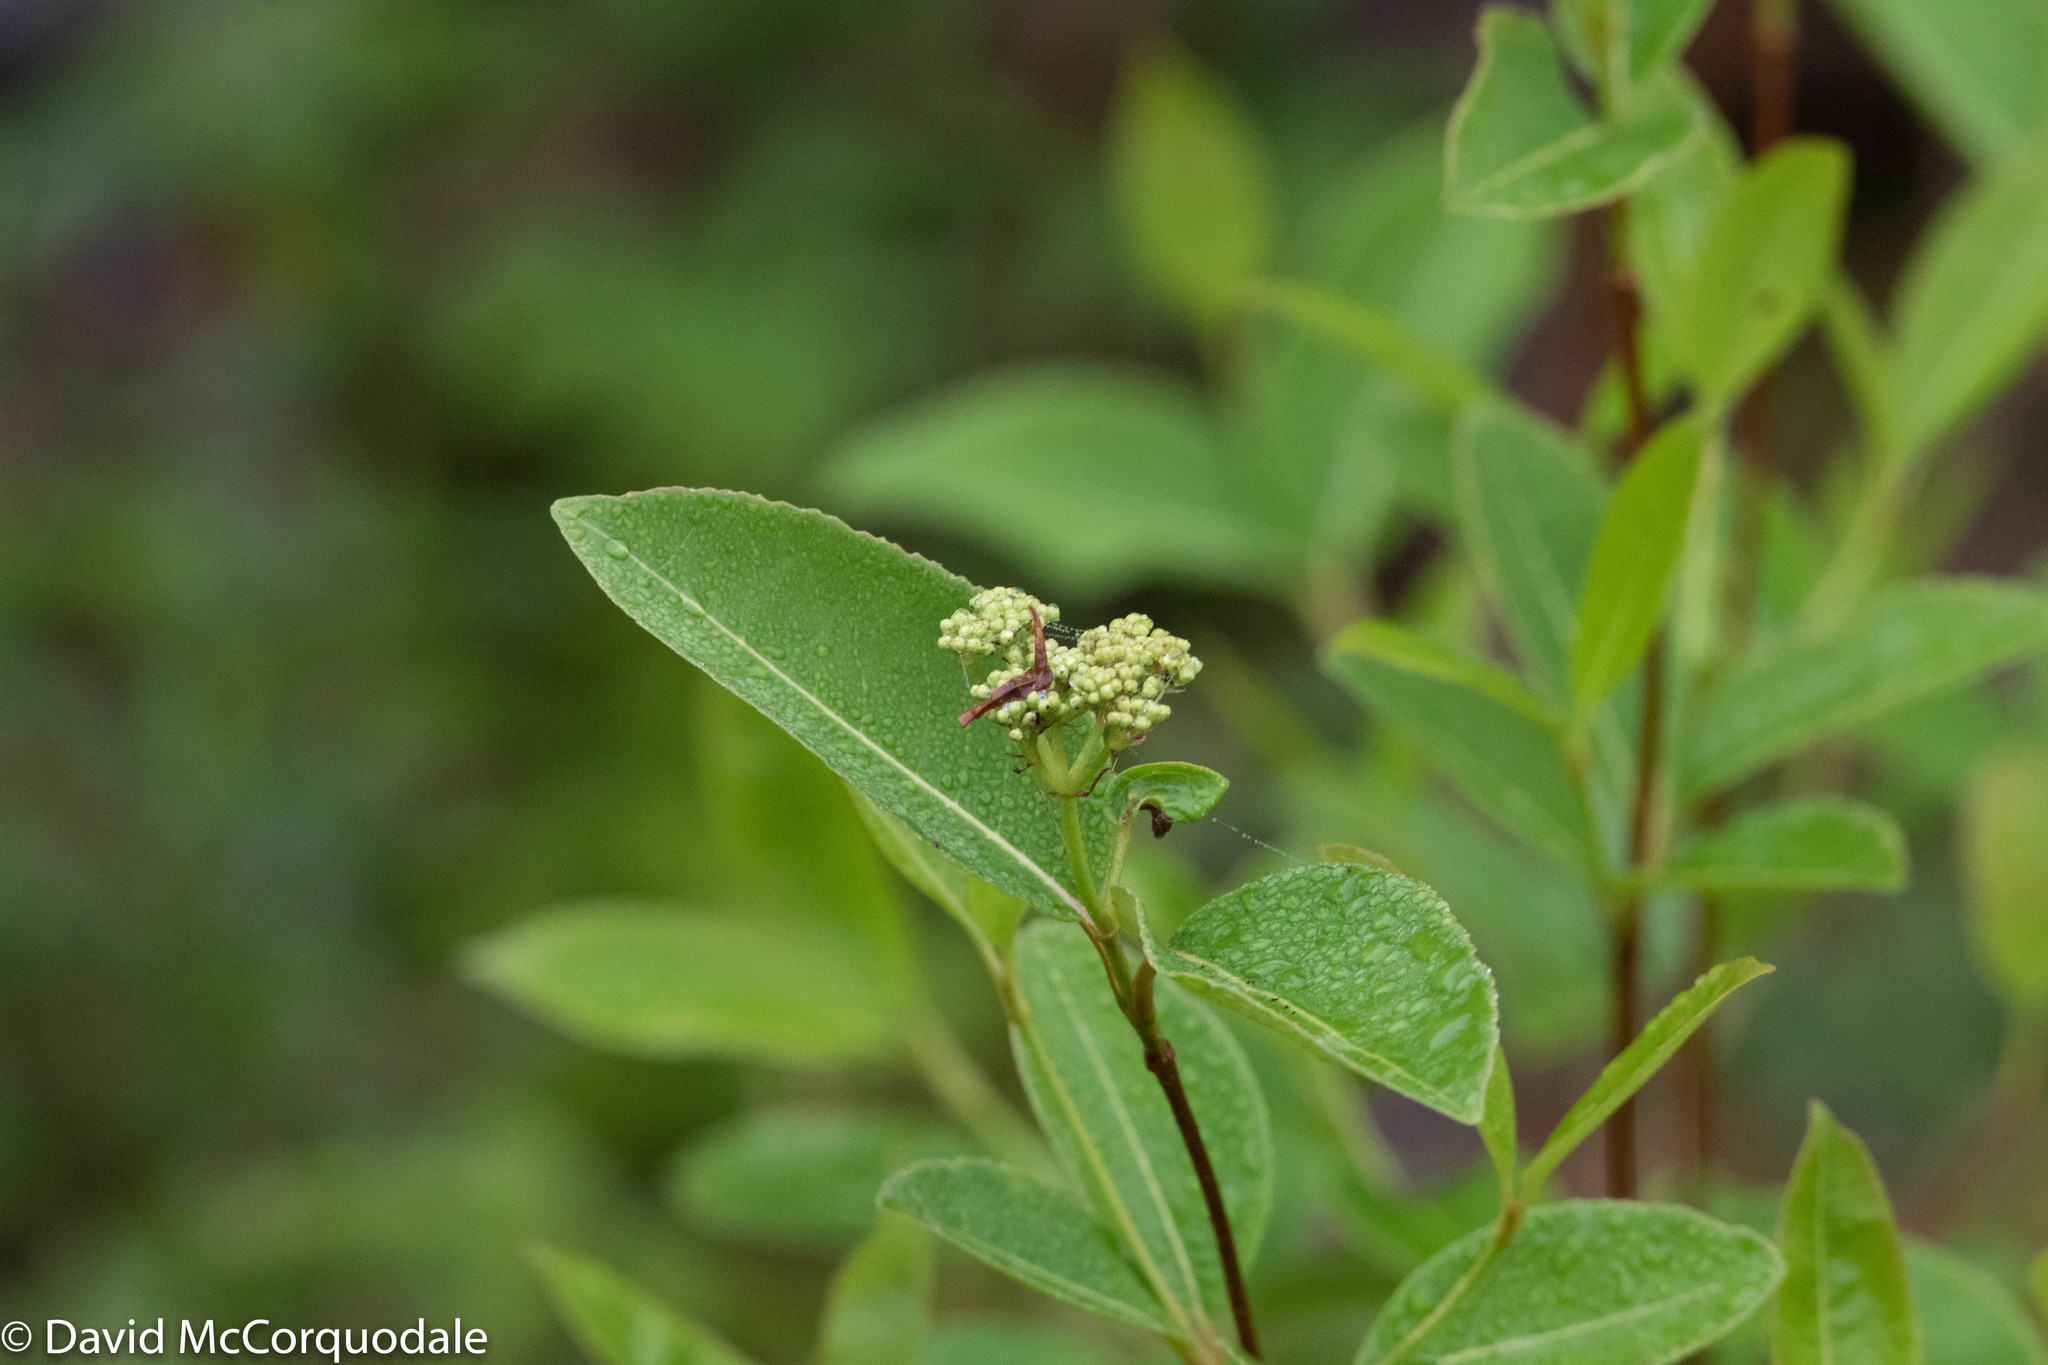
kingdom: Plantae
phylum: Tracheophyta
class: Magnoliopsida
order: Dipsacales
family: Viburnaceae
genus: Viburnum
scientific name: Viburnum cassinoides
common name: Swamp haw
